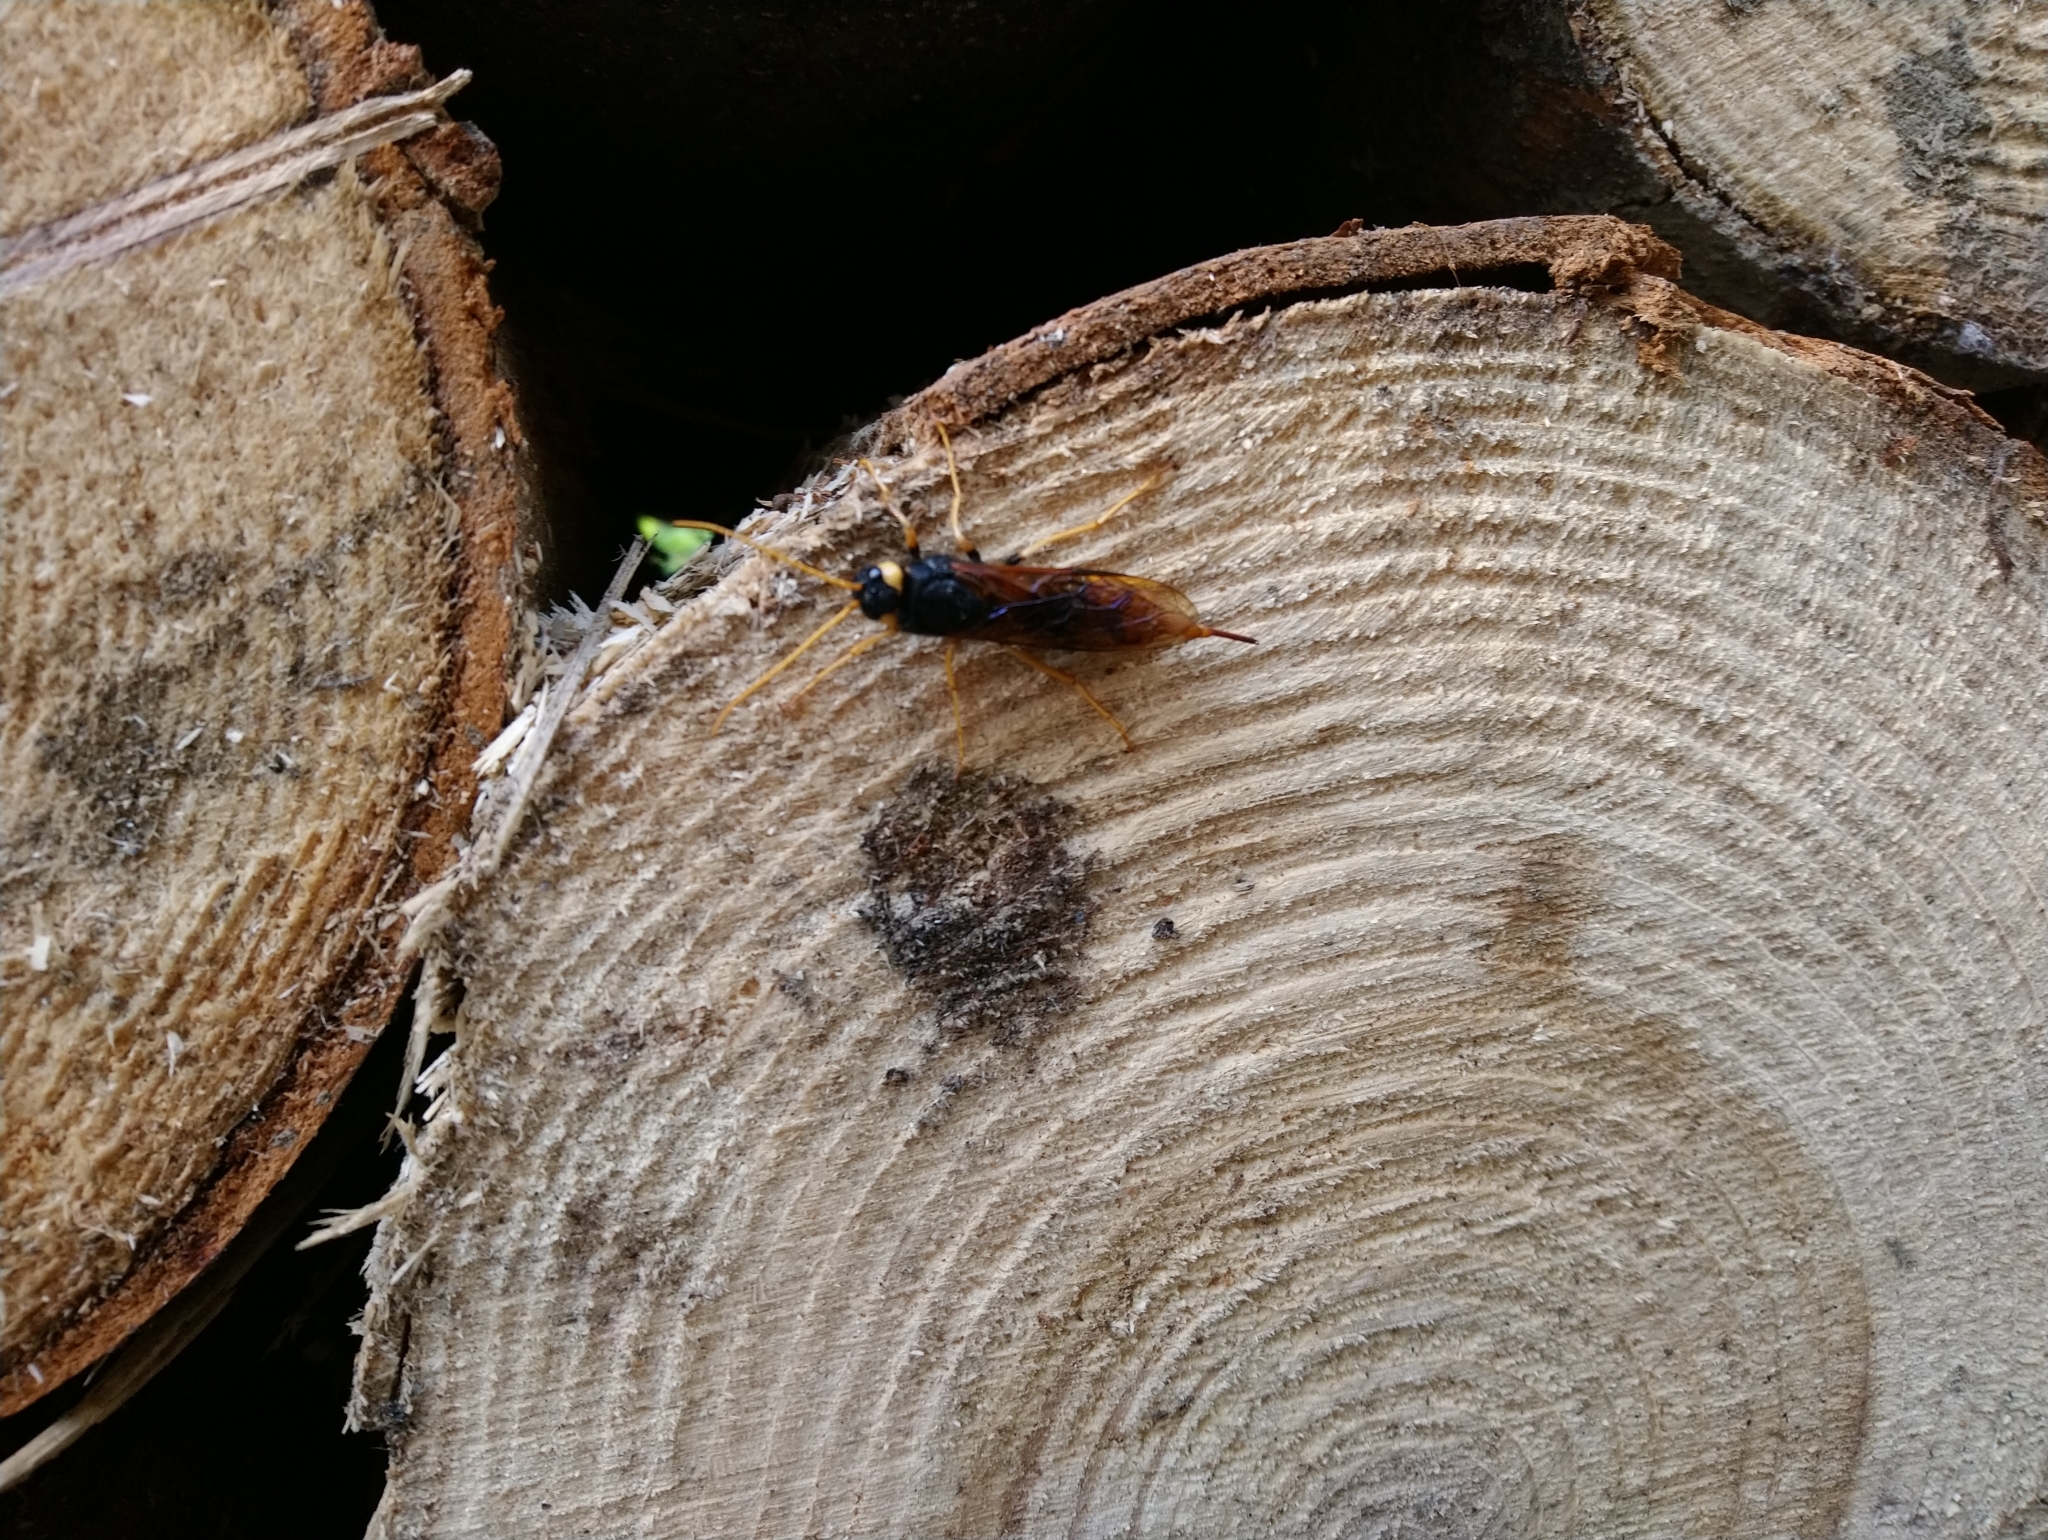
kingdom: Animalia
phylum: Arthropoda
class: Insecta
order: Hymenoptera
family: Siricidae
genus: Urocerus
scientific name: Urocerus gigas
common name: Giant woodwasp
